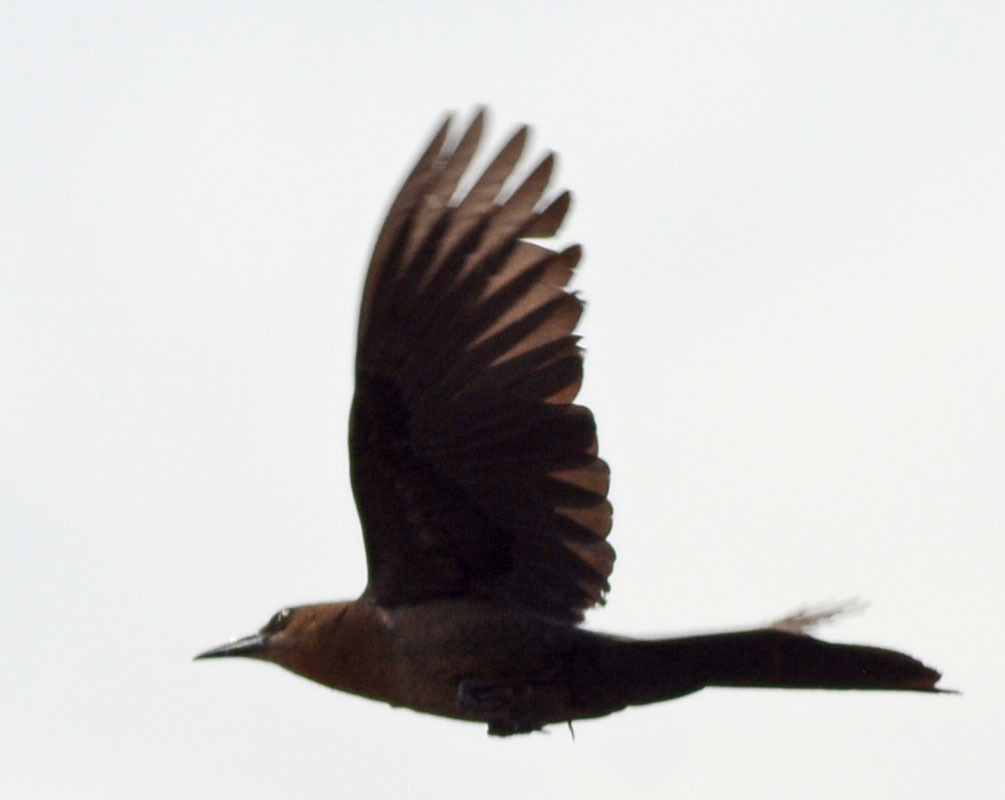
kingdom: Animalia
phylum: Chordata
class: Aves
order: Passeriformes
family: Icteridae
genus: Quiscalus
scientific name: Quiscalus mexicanus
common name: Great-tailed grackle
